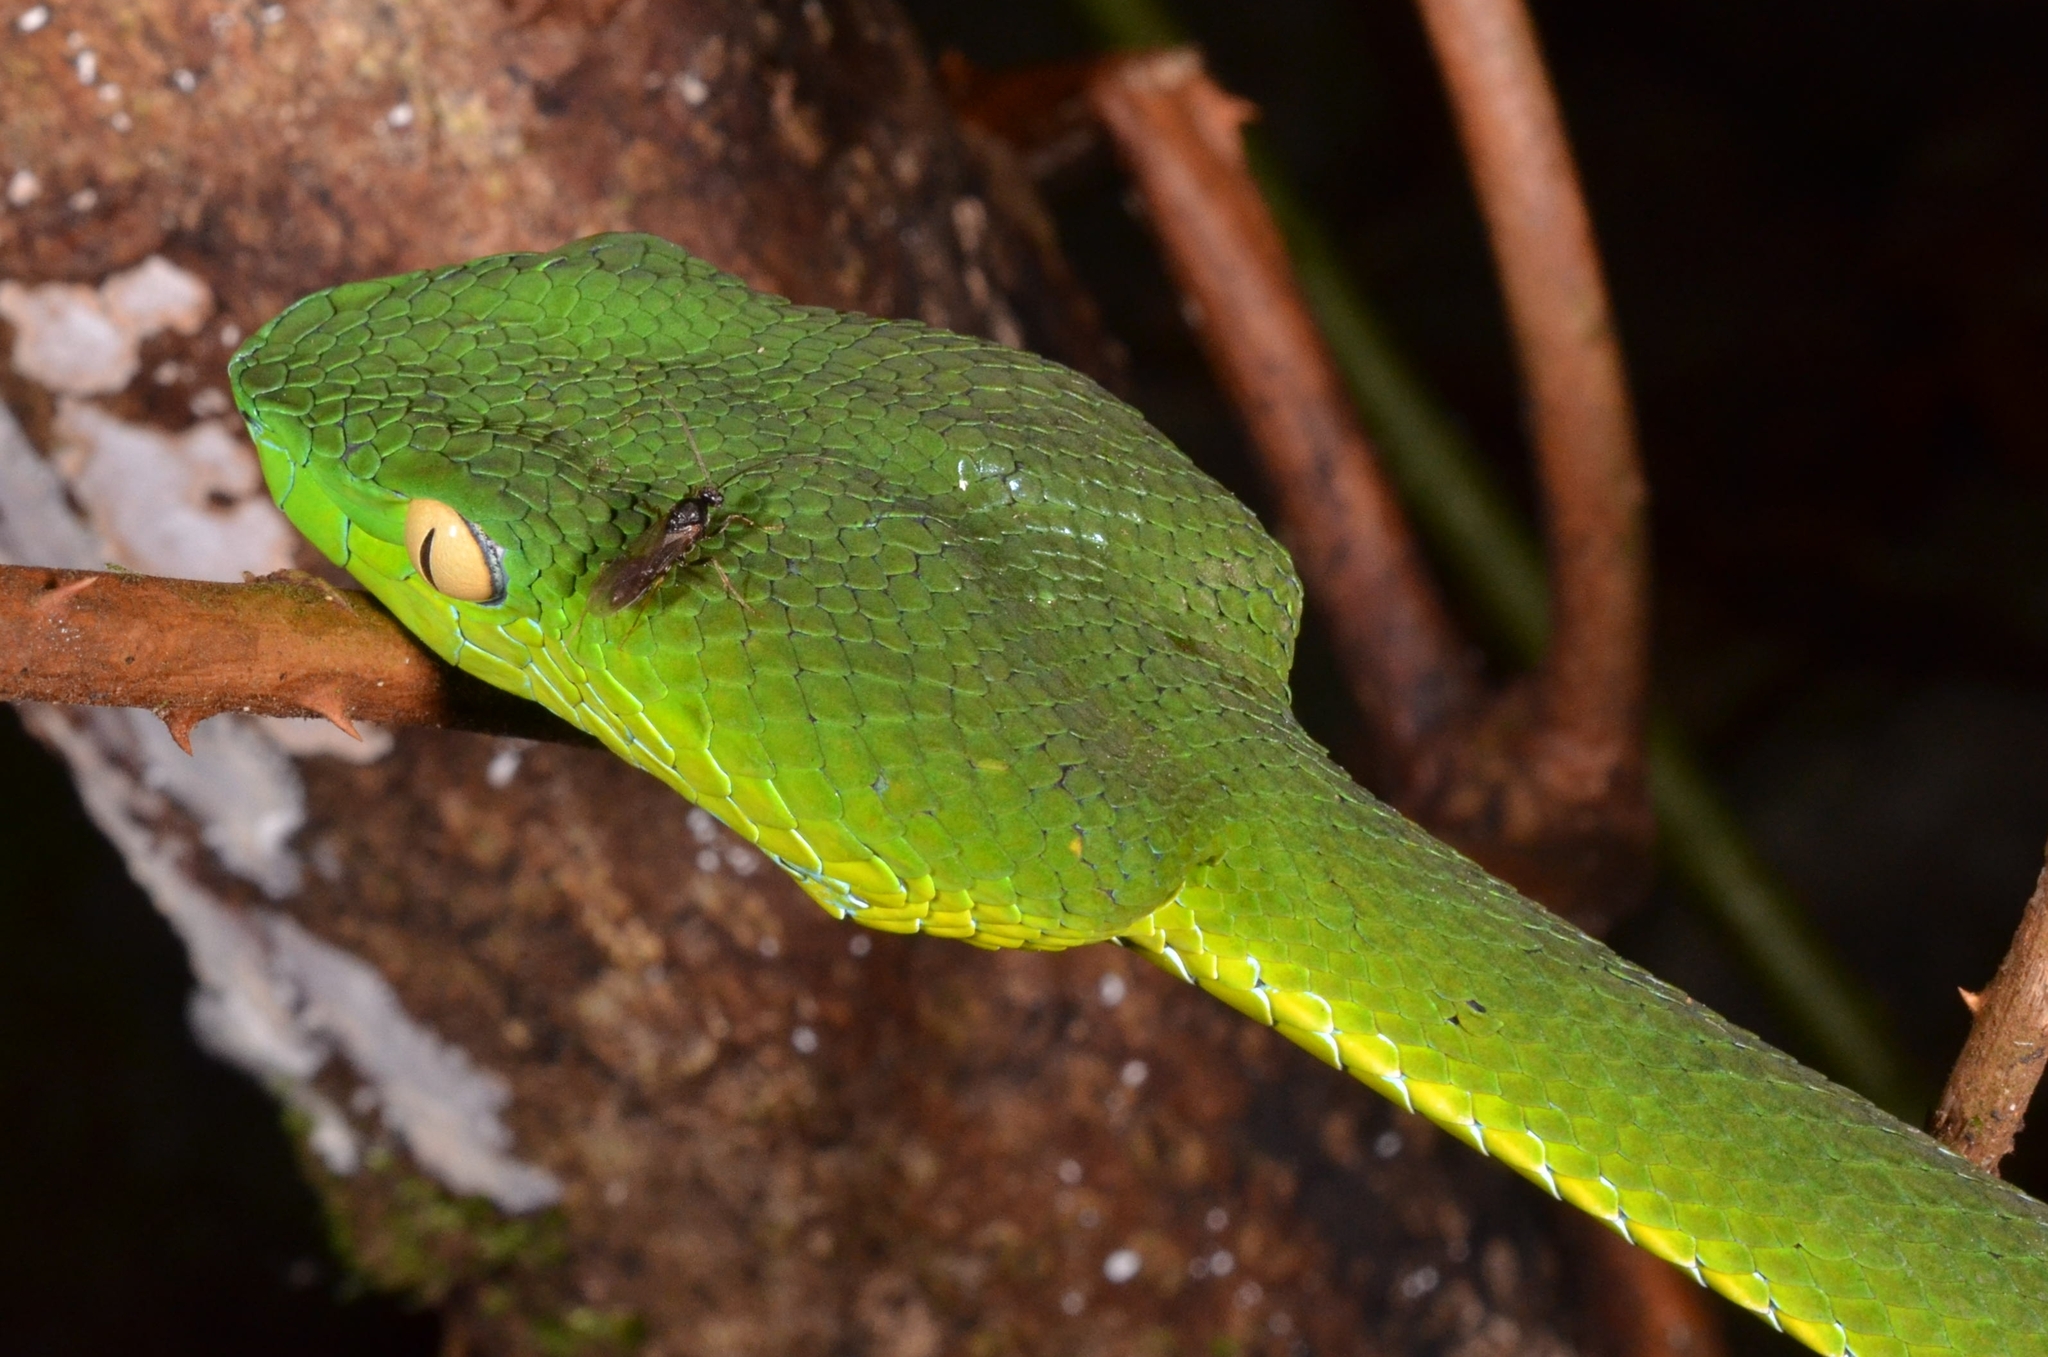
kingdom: Animalia
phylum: Chordata
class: Squamata
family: Viperidae
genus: Trimeresurus
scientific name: Trimeresurus vogeli
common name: Vogel's pit viper
